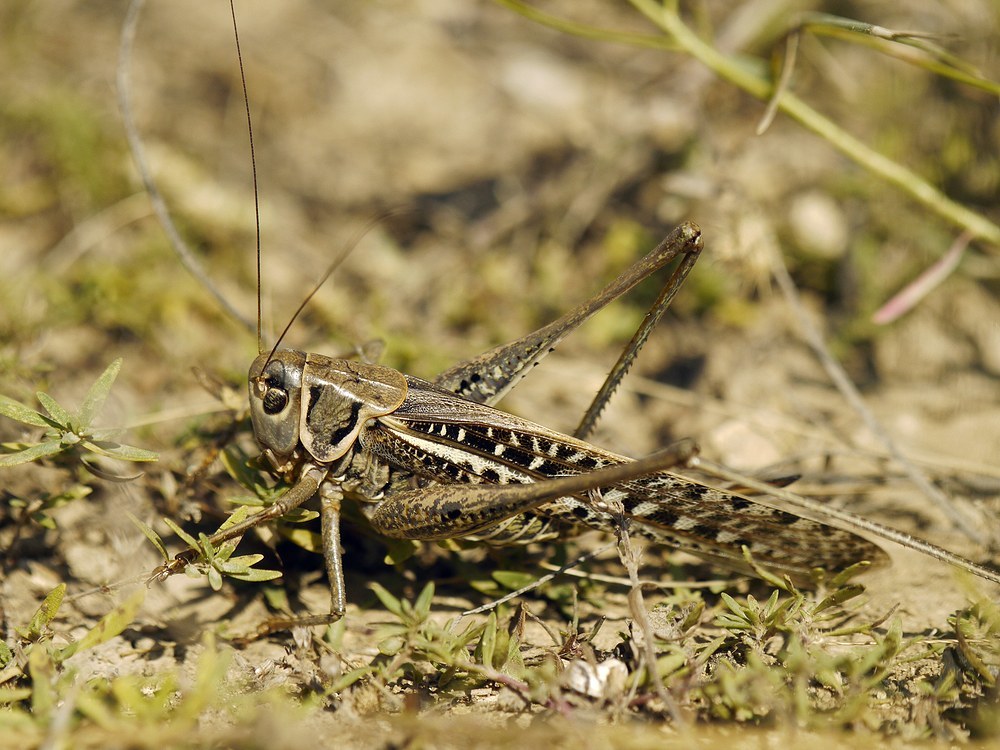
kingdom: Animalia
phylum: Arthropoda
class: Insecta
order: Orthoptera
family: Tettigoniidae
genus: Decticus
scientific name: Decticus albifrons
